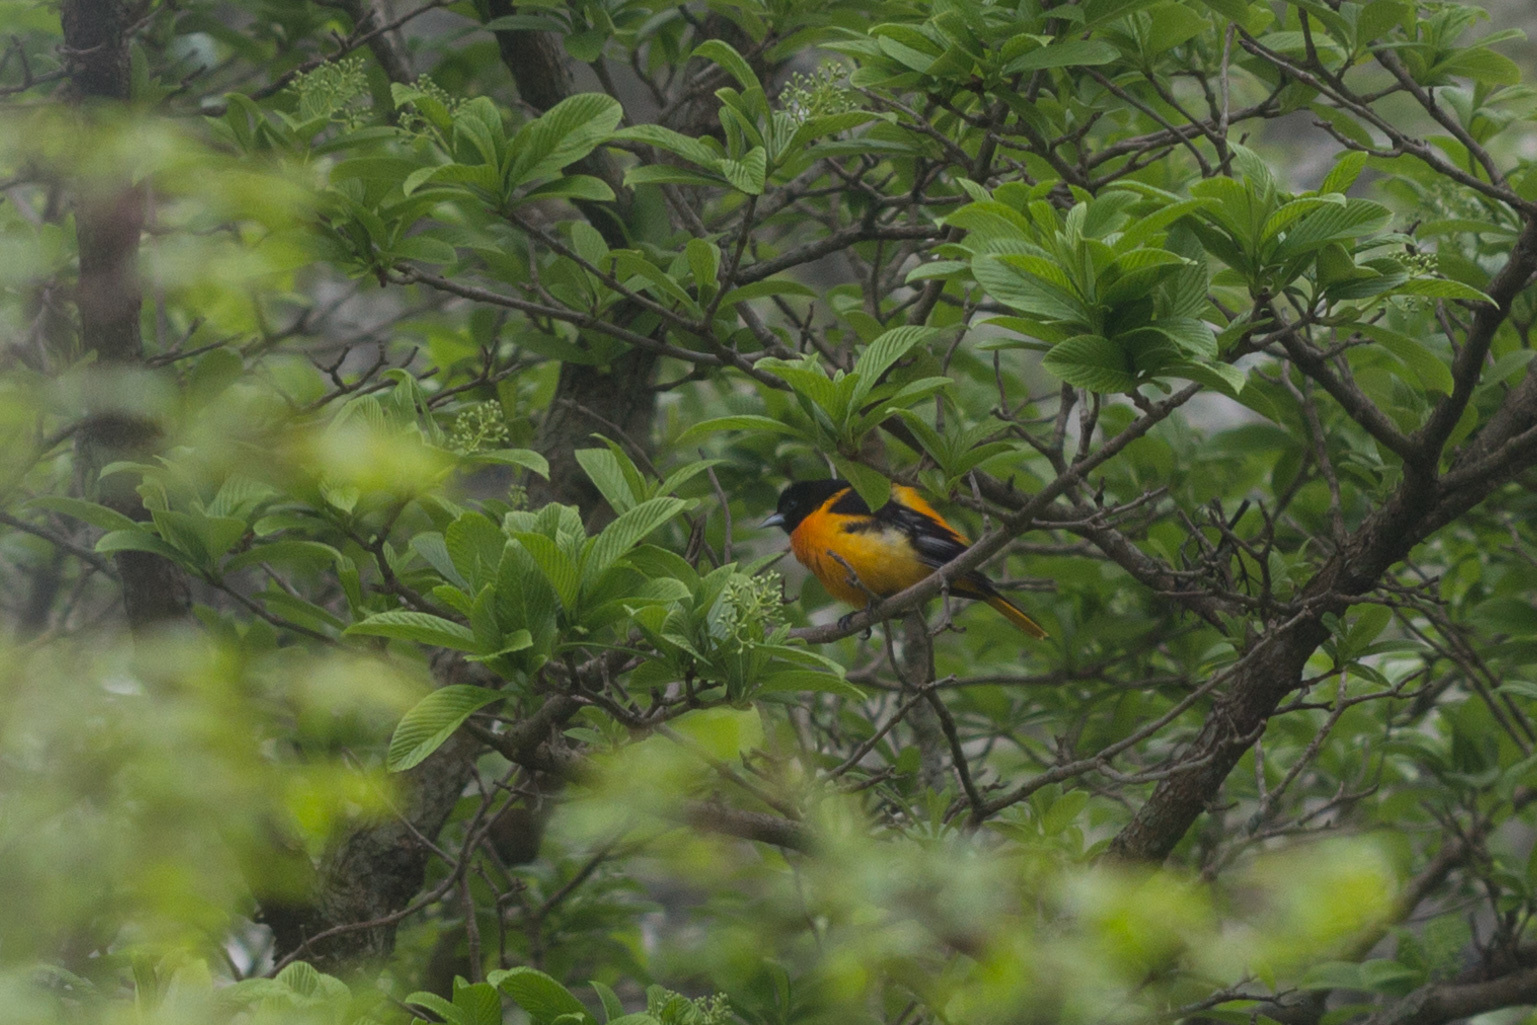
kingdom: Animalia
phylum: Chordata
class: Aves
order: Passeriformes
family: Icteridae
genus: Icterus
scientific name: Icterus galbula
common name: Baltimore oriole
